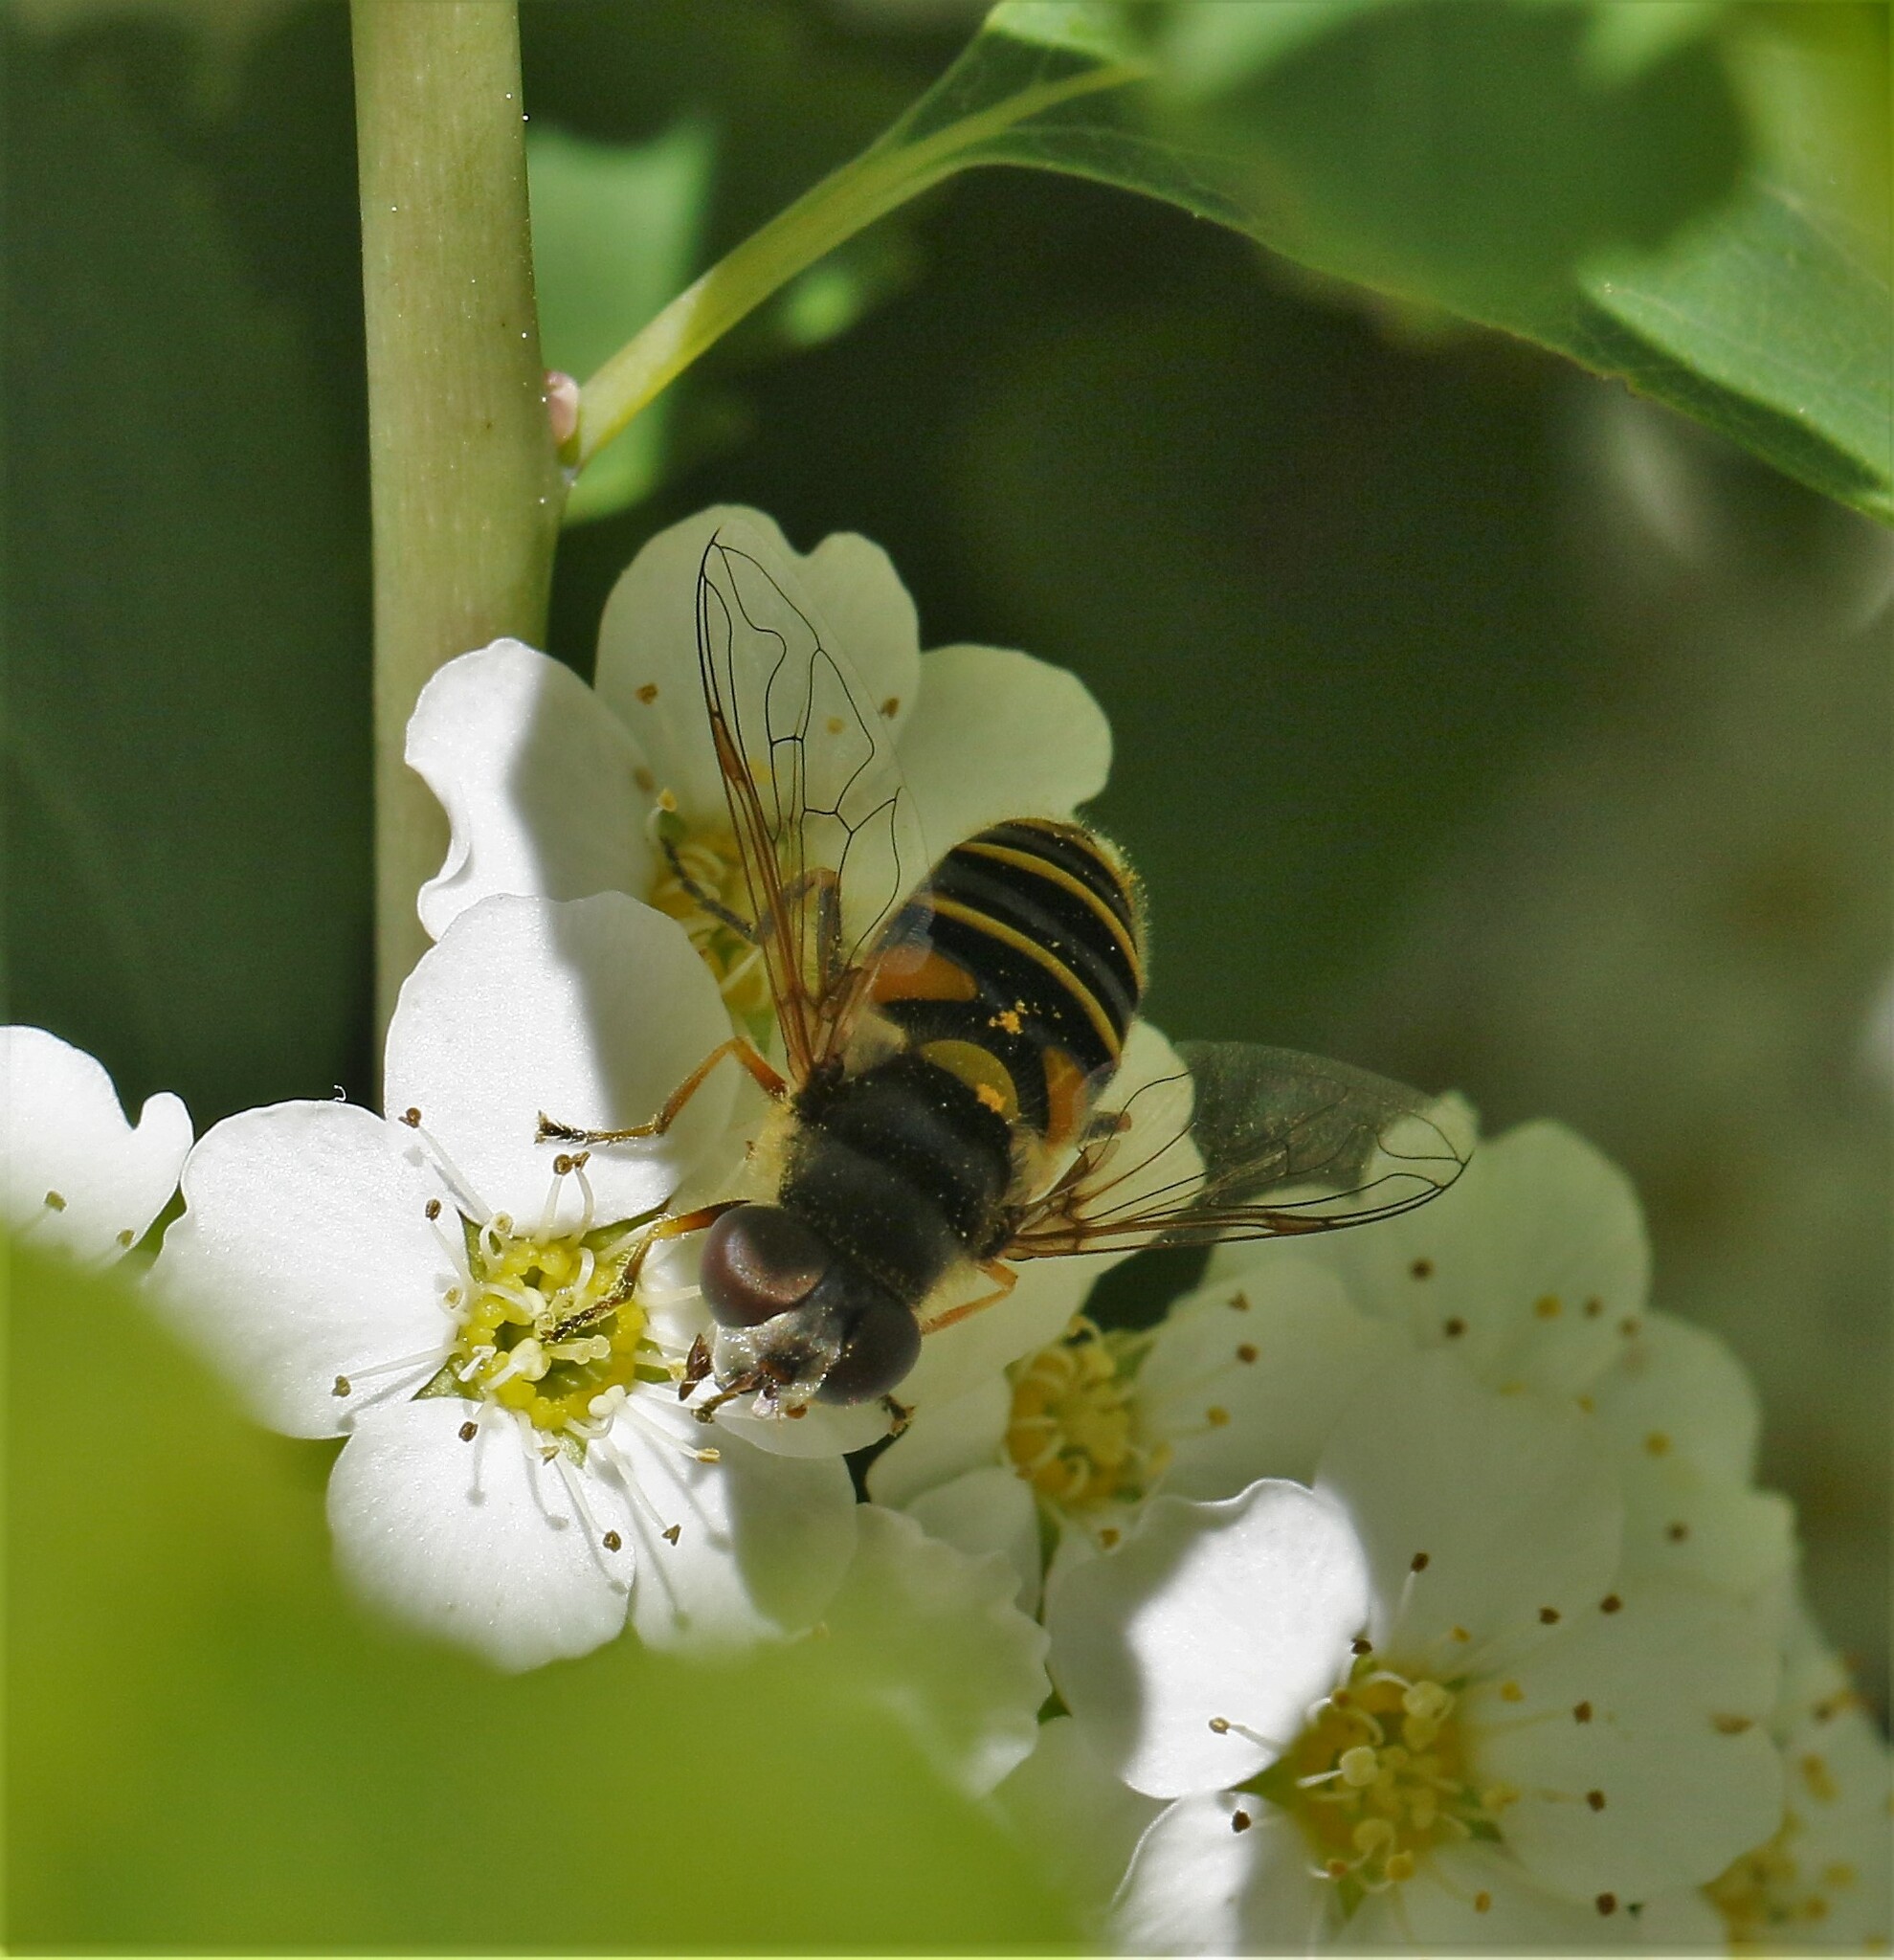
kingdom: Animalia
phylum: Arthropoda
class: Insecta
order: Diptera
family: Syrphidae
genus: Eristalis
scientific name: Eristalis transversa
